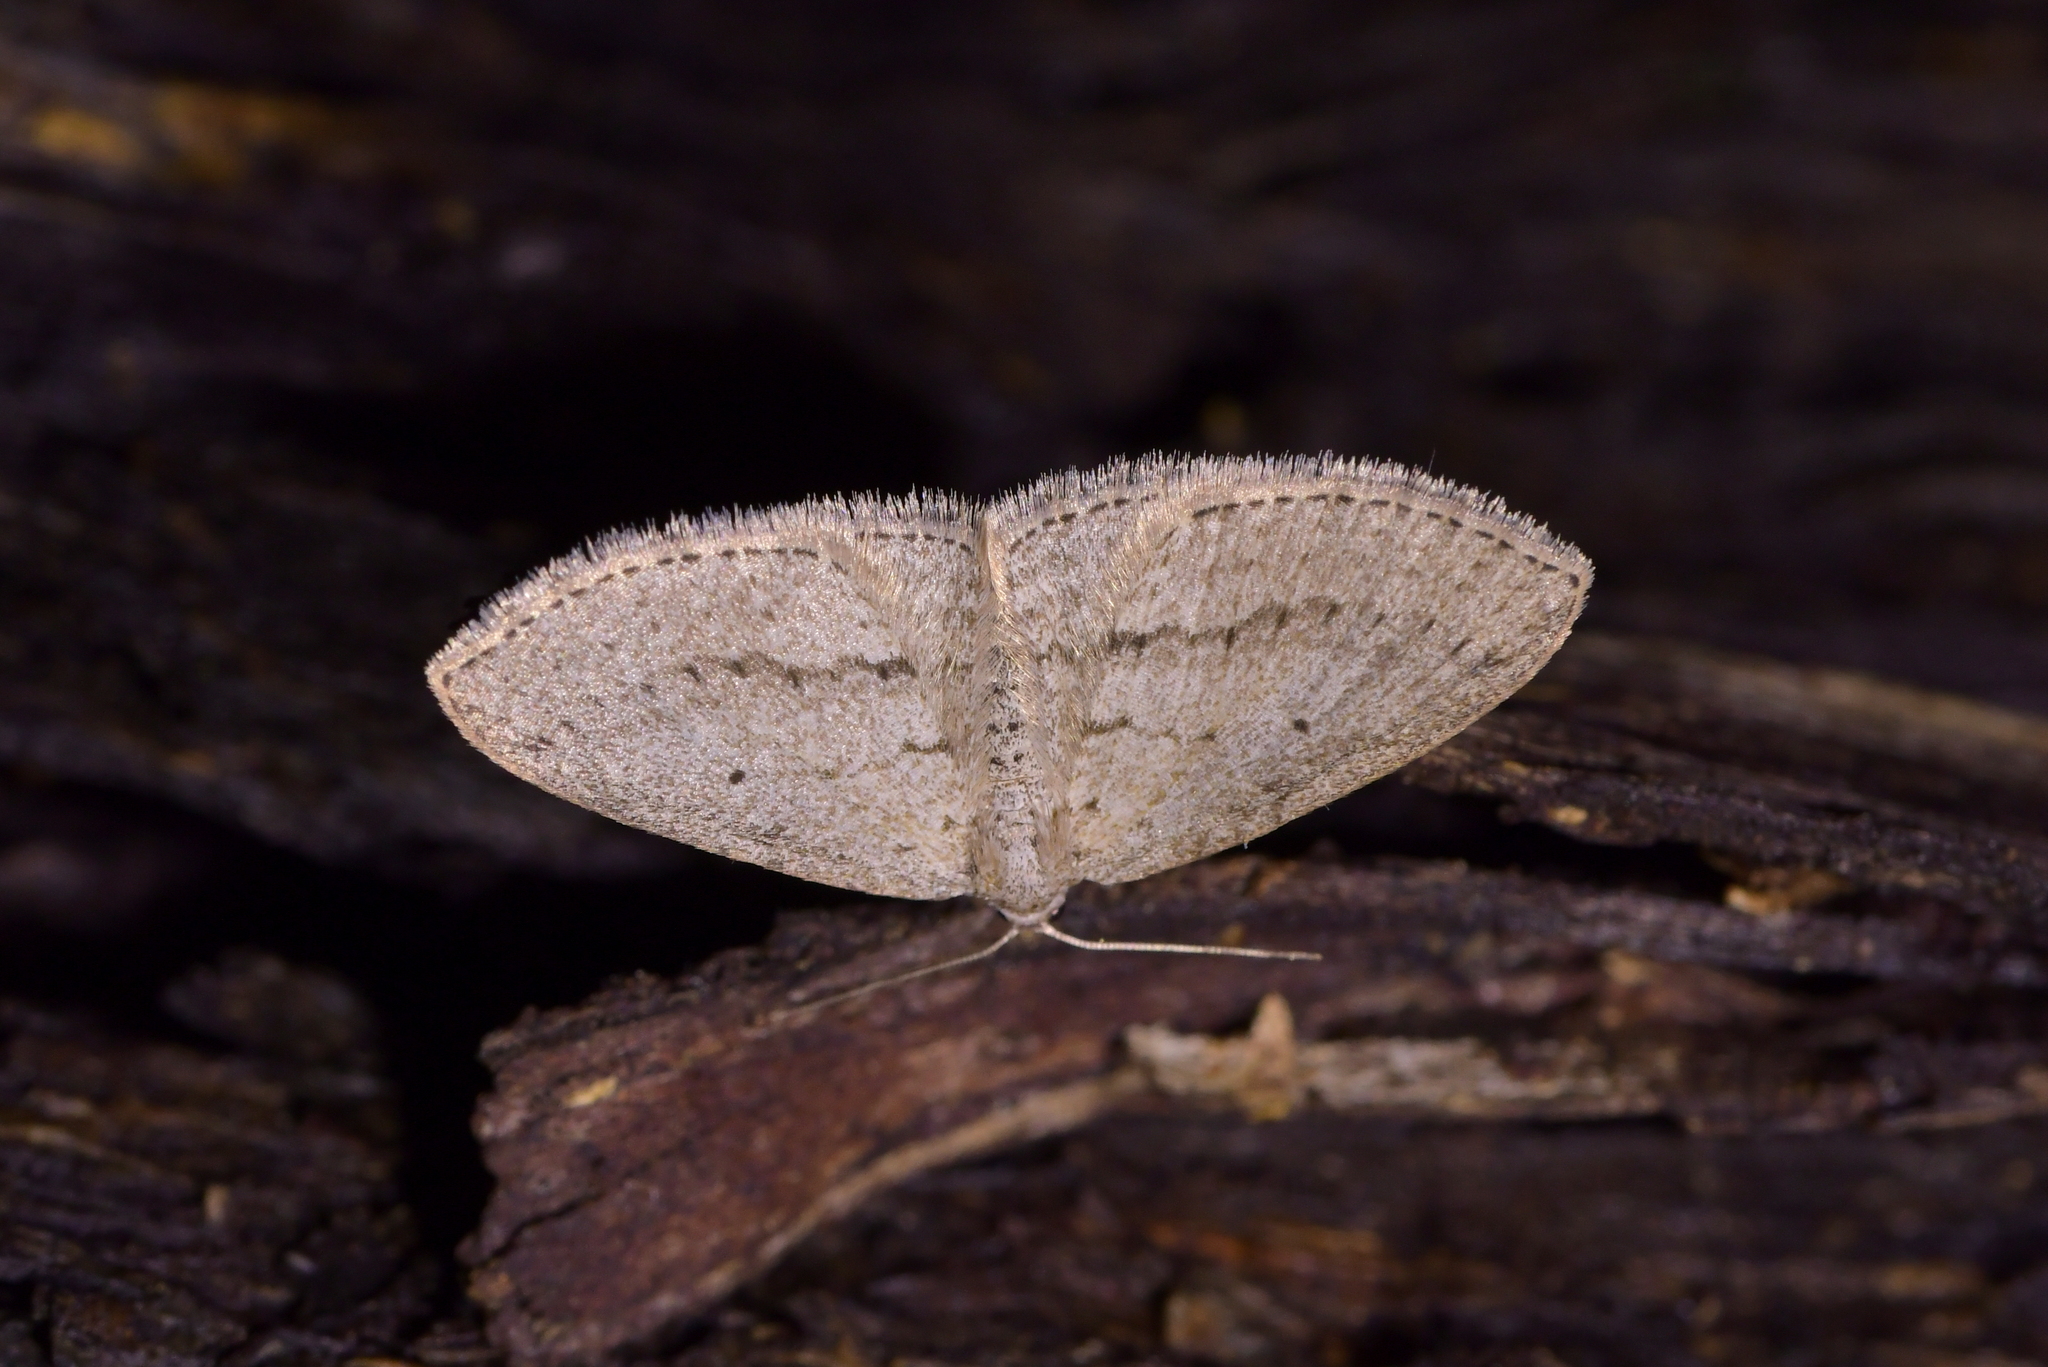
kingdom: Animalia
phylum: Arthropoda
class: Insecta
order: Lepidoptera
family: Geometridae
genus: Poecilasthena
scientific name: Poecilasthena schistaria
